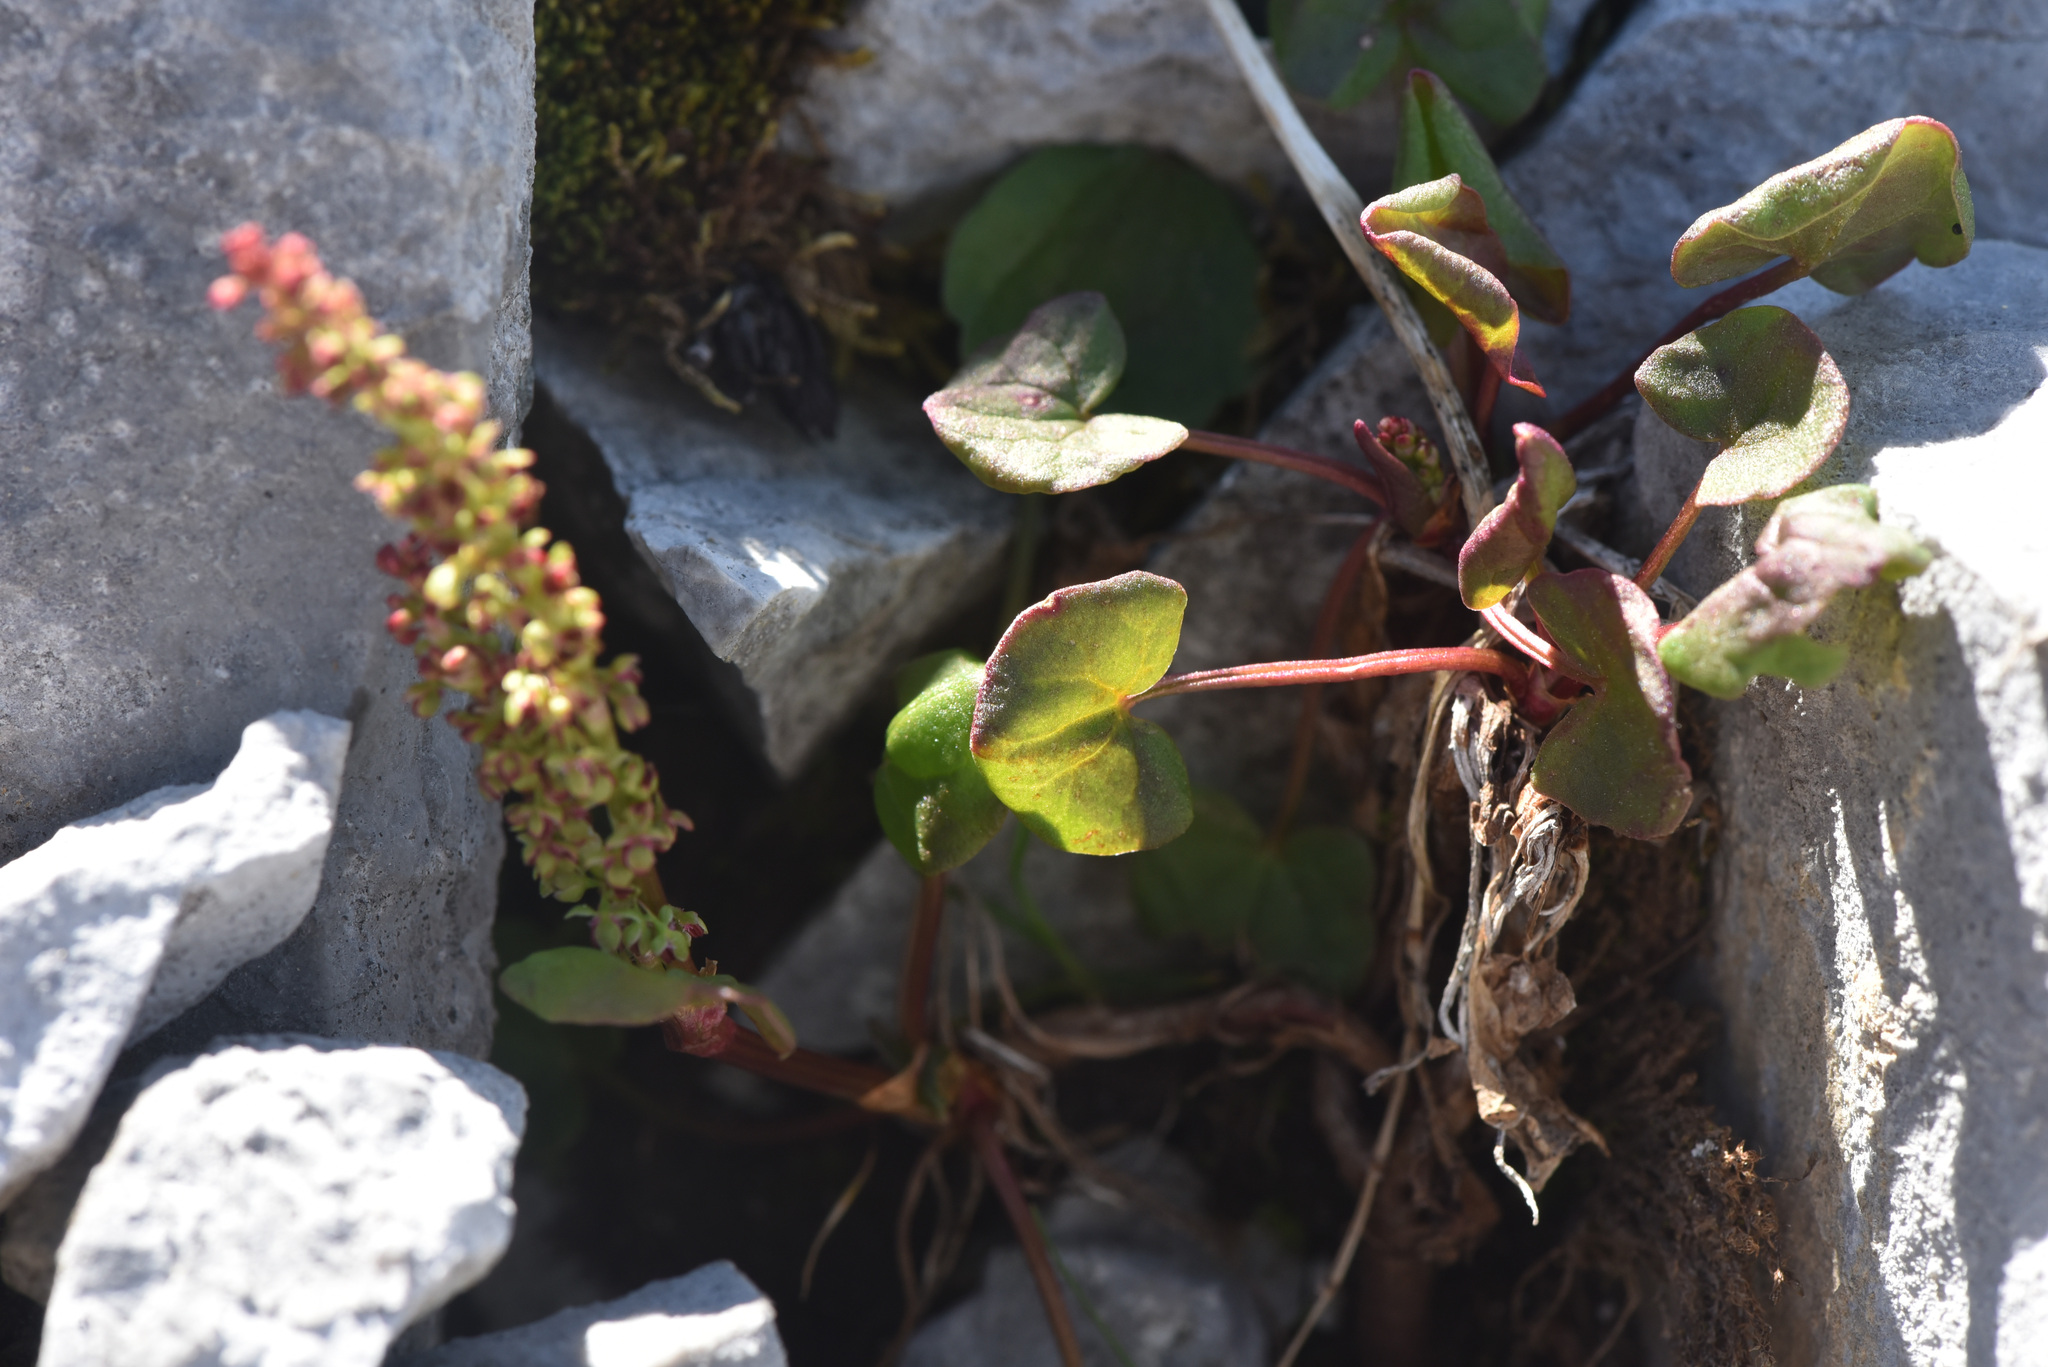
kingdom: Plantae
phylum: Tracheophyta
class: Magnoliopsida
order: Caryophyllales
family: Polygonaceae
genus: Oxyria
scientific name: Oxyria digyna
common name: Alpine mountain-sorrel
